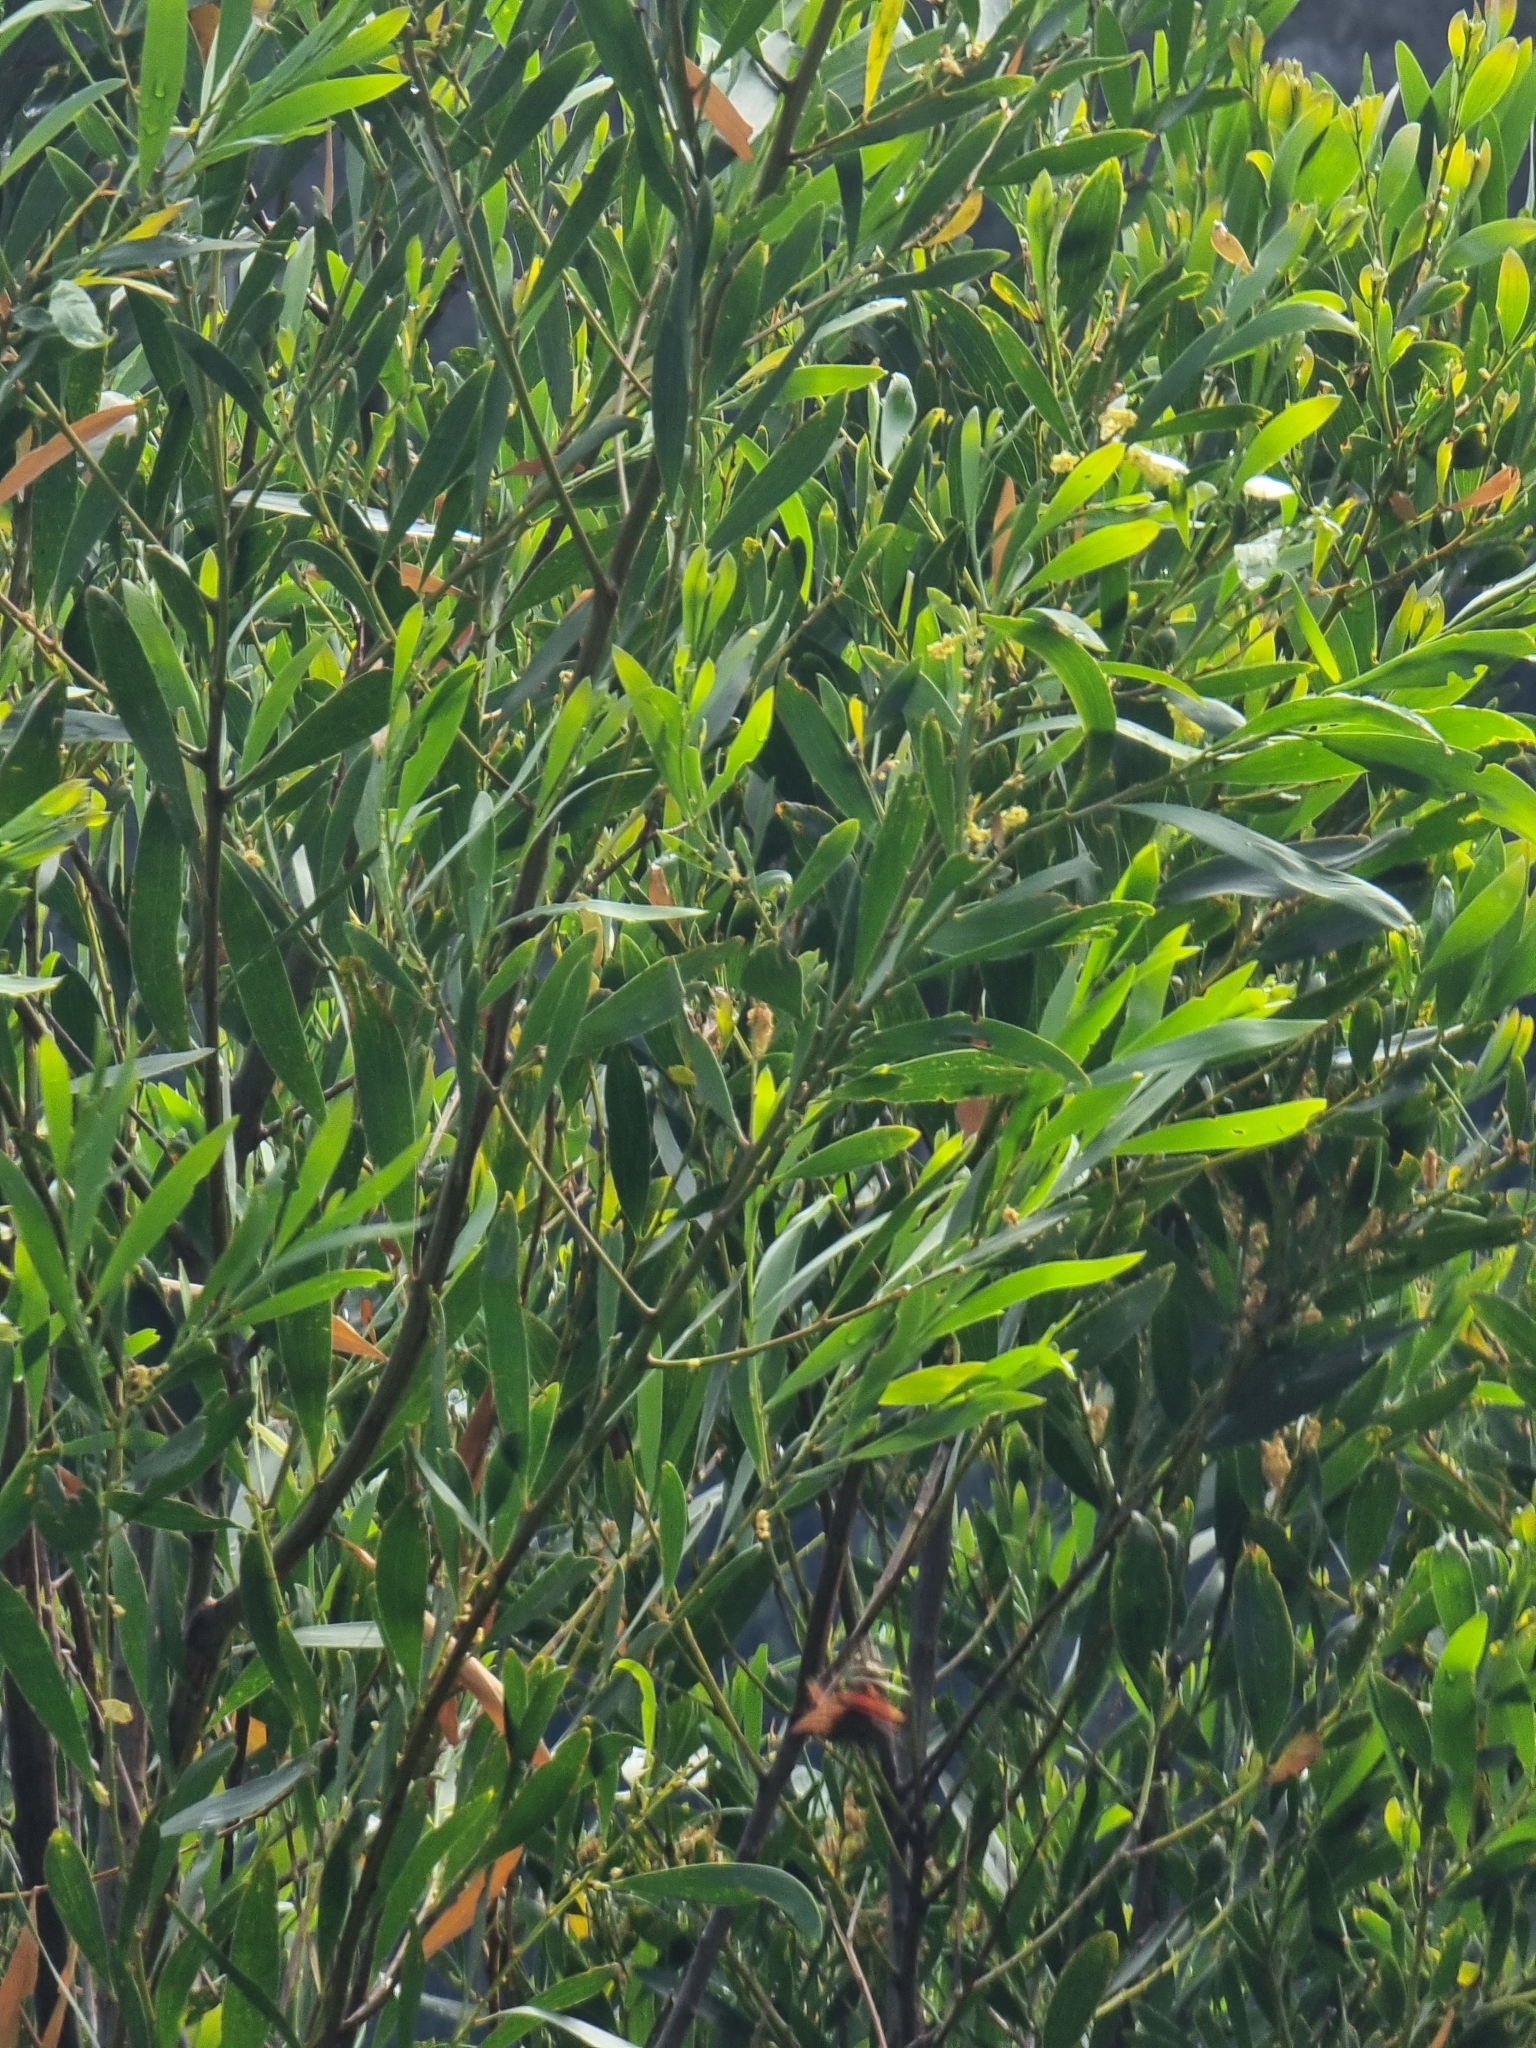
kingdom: Plantae
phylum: Tracheophyta
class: Magnoliopsida
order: Fabales
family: Fabaceae
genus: Acacia
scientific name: Acacia melanoxylon
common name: Blackwood
